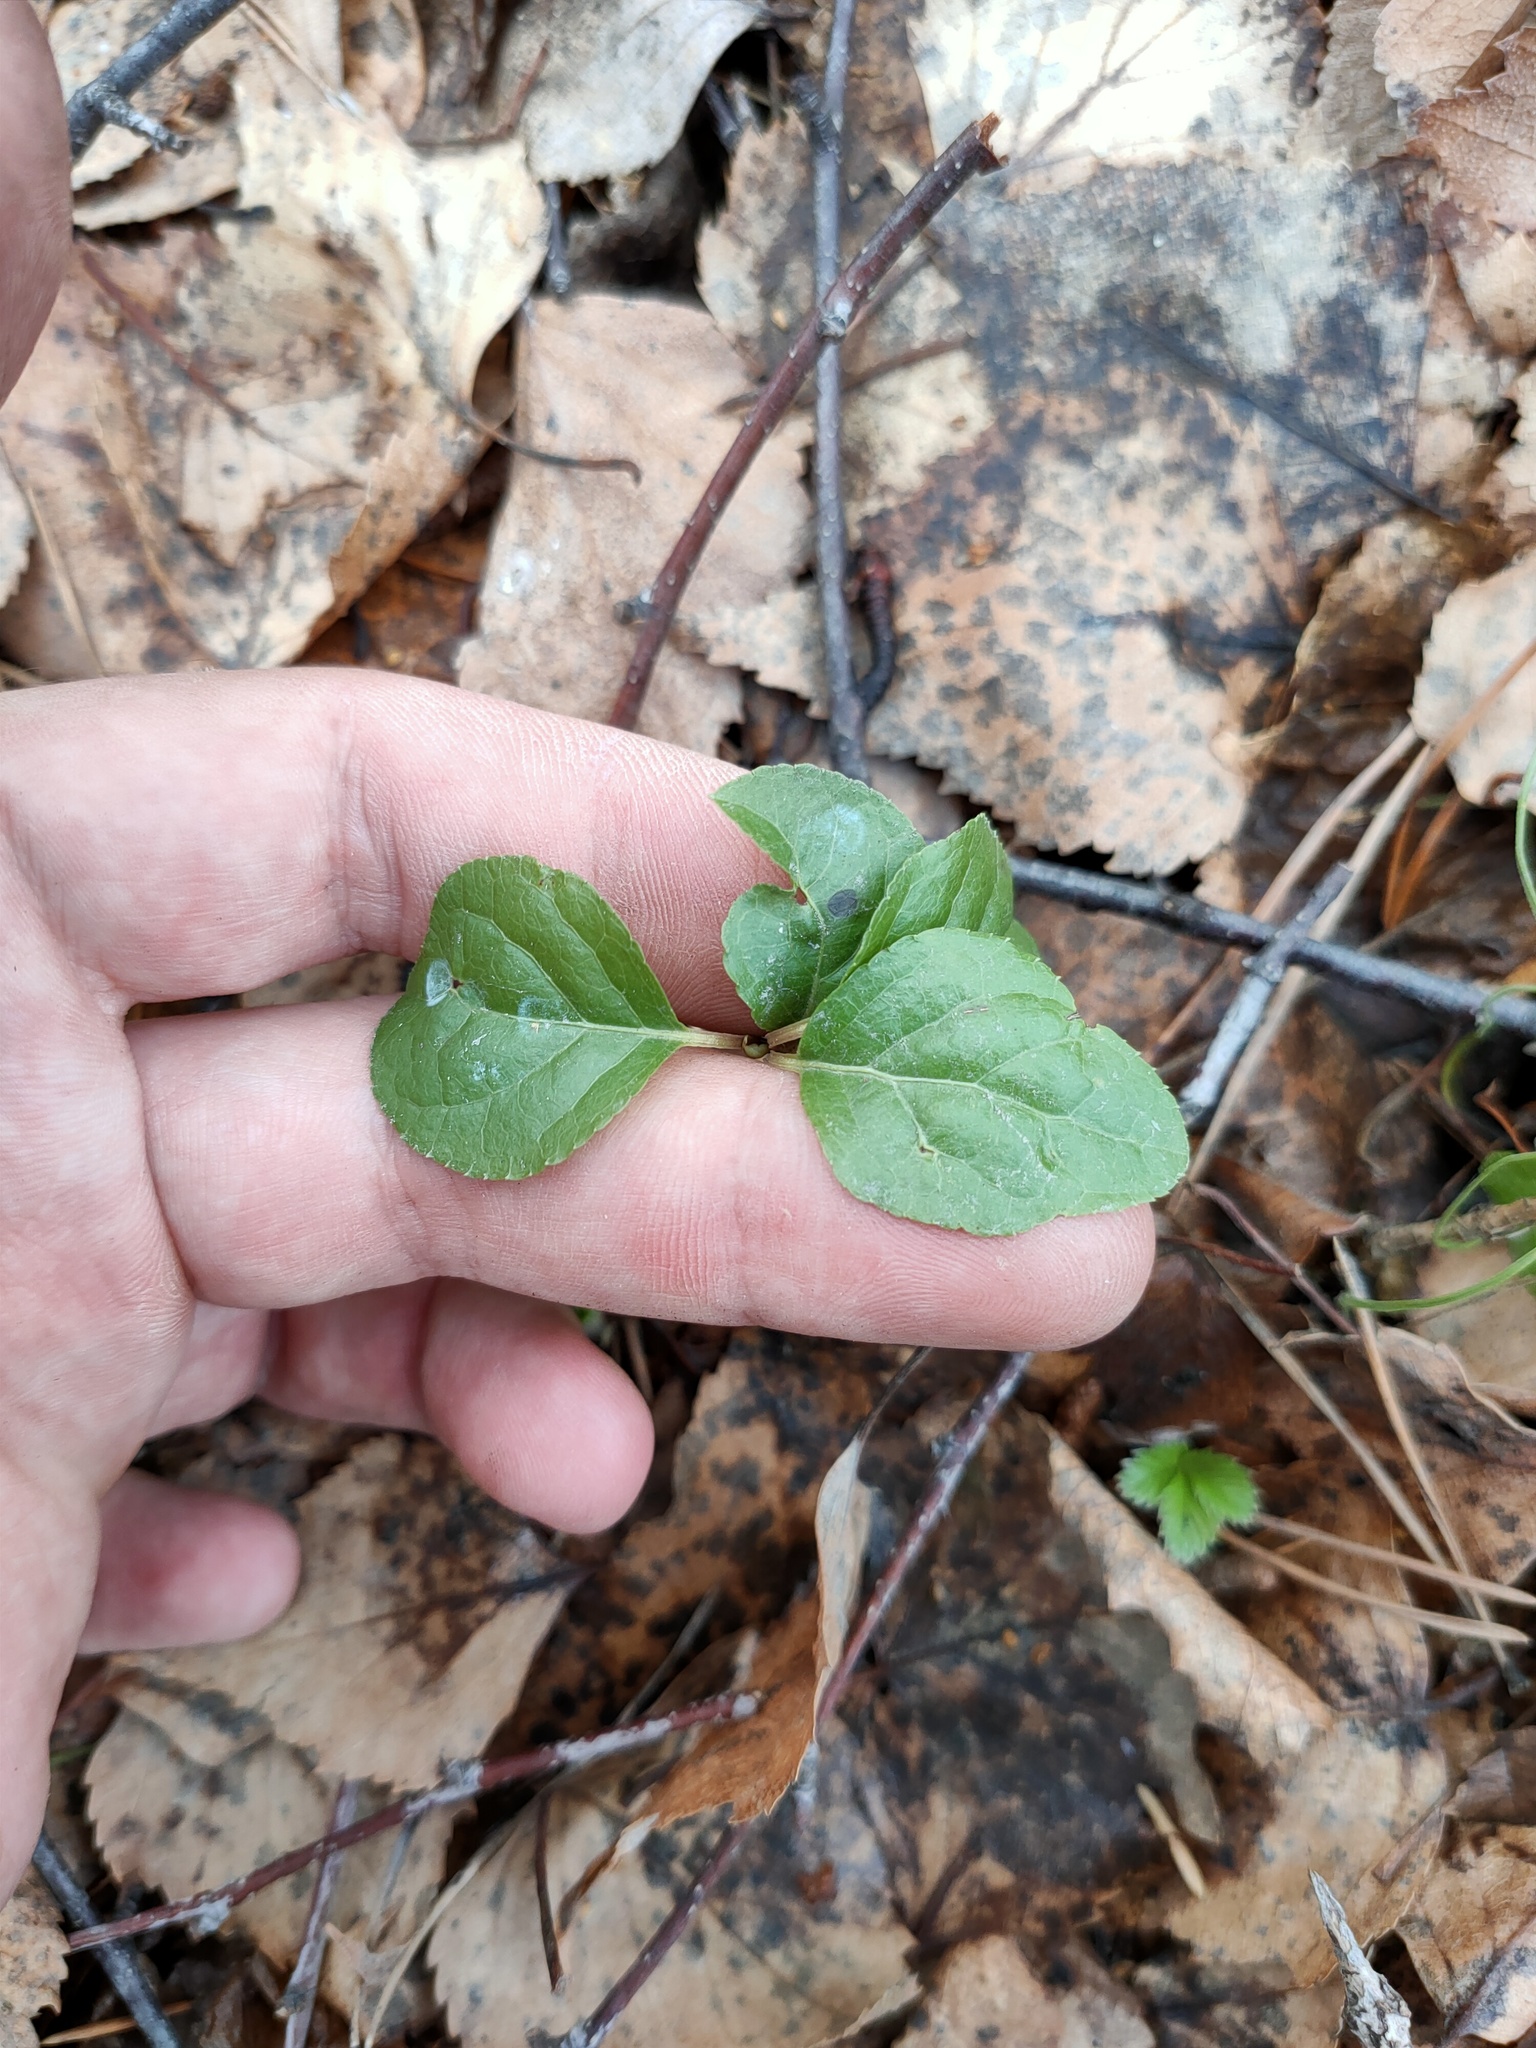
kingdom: Plantae
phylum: Tracheophyta
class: Magnoliopsida
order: Ericales
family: Ericaceae
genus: Orthilia
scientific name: Orthilia secunda
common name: One-sided orthilia
